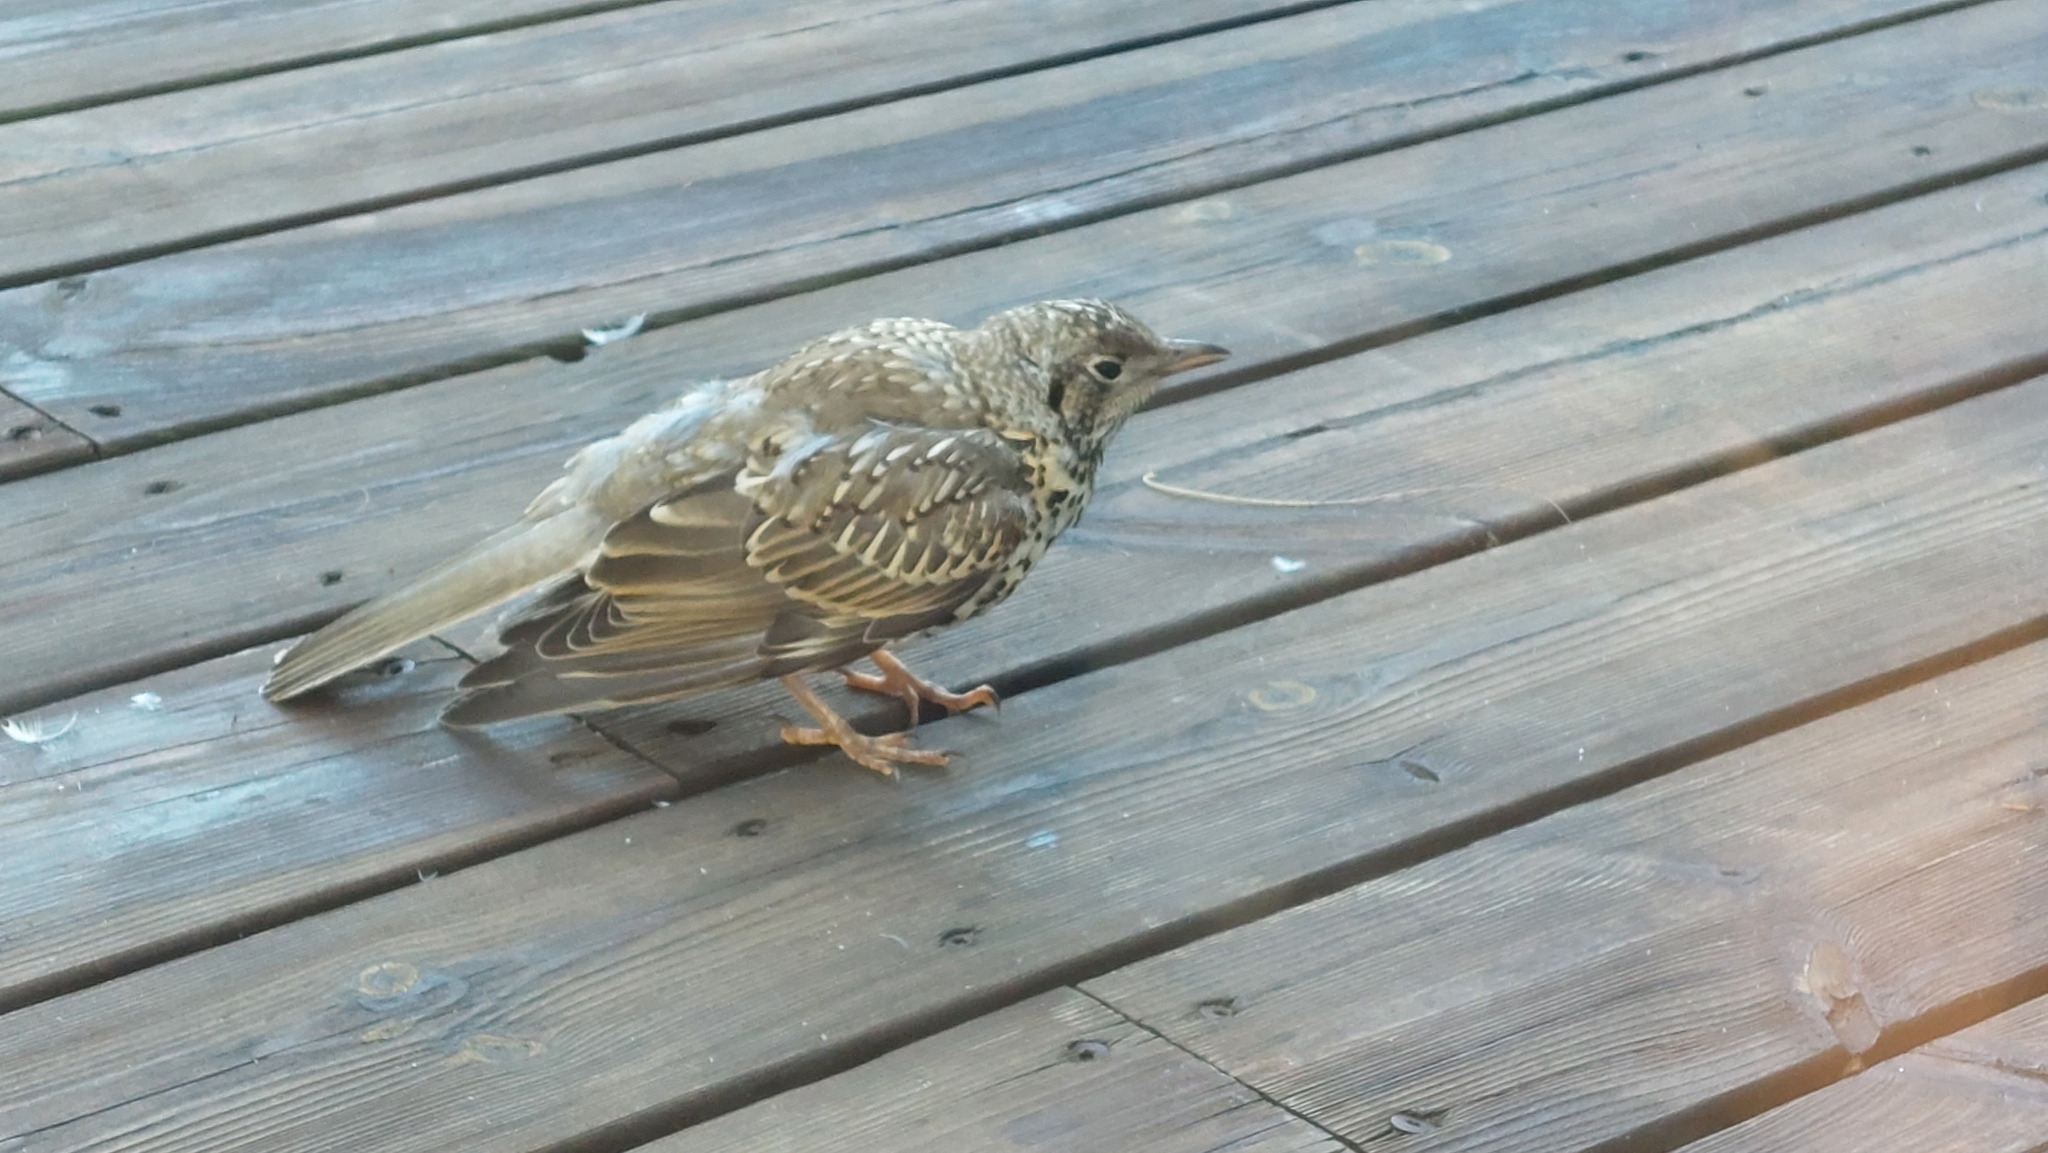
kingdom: Animalia
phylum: Chordata
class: Aves
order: Passeriformes
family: Turdidae
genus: Turdus
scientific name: Turdus viscivorus
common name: Mistle thrush
